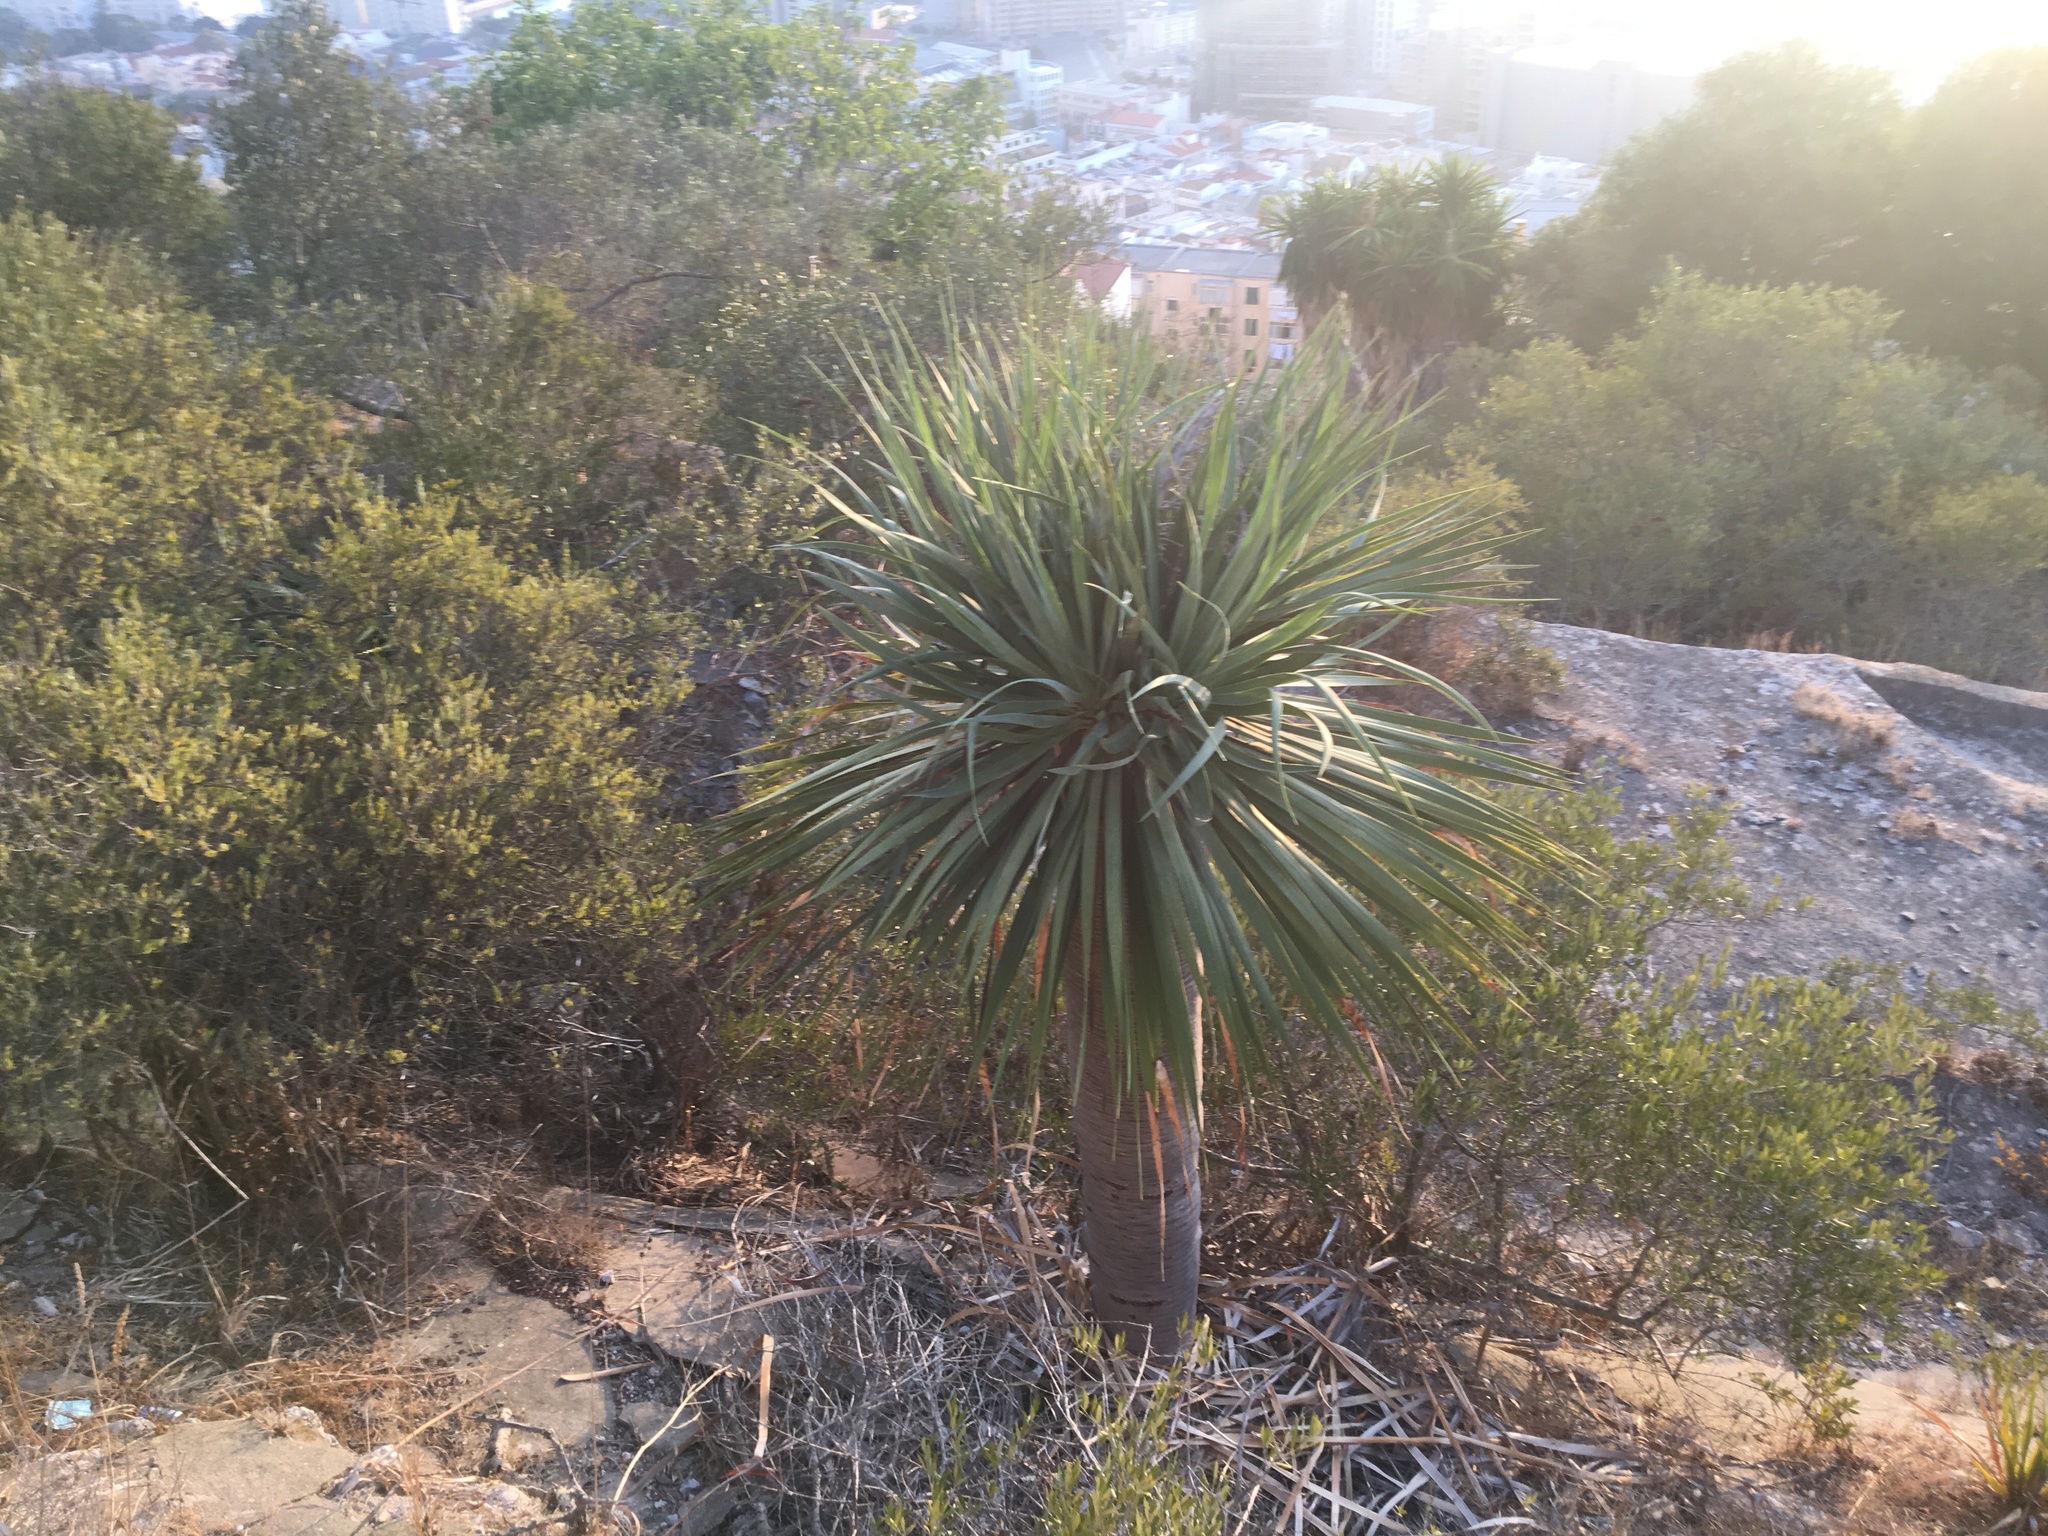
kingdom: Plantae
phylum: Tracheophyta
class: Liliopsida
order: Asparagales
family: Asparagaceae
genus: Dracaena
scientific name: Dracaena draco
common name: Canary island dragon tree
